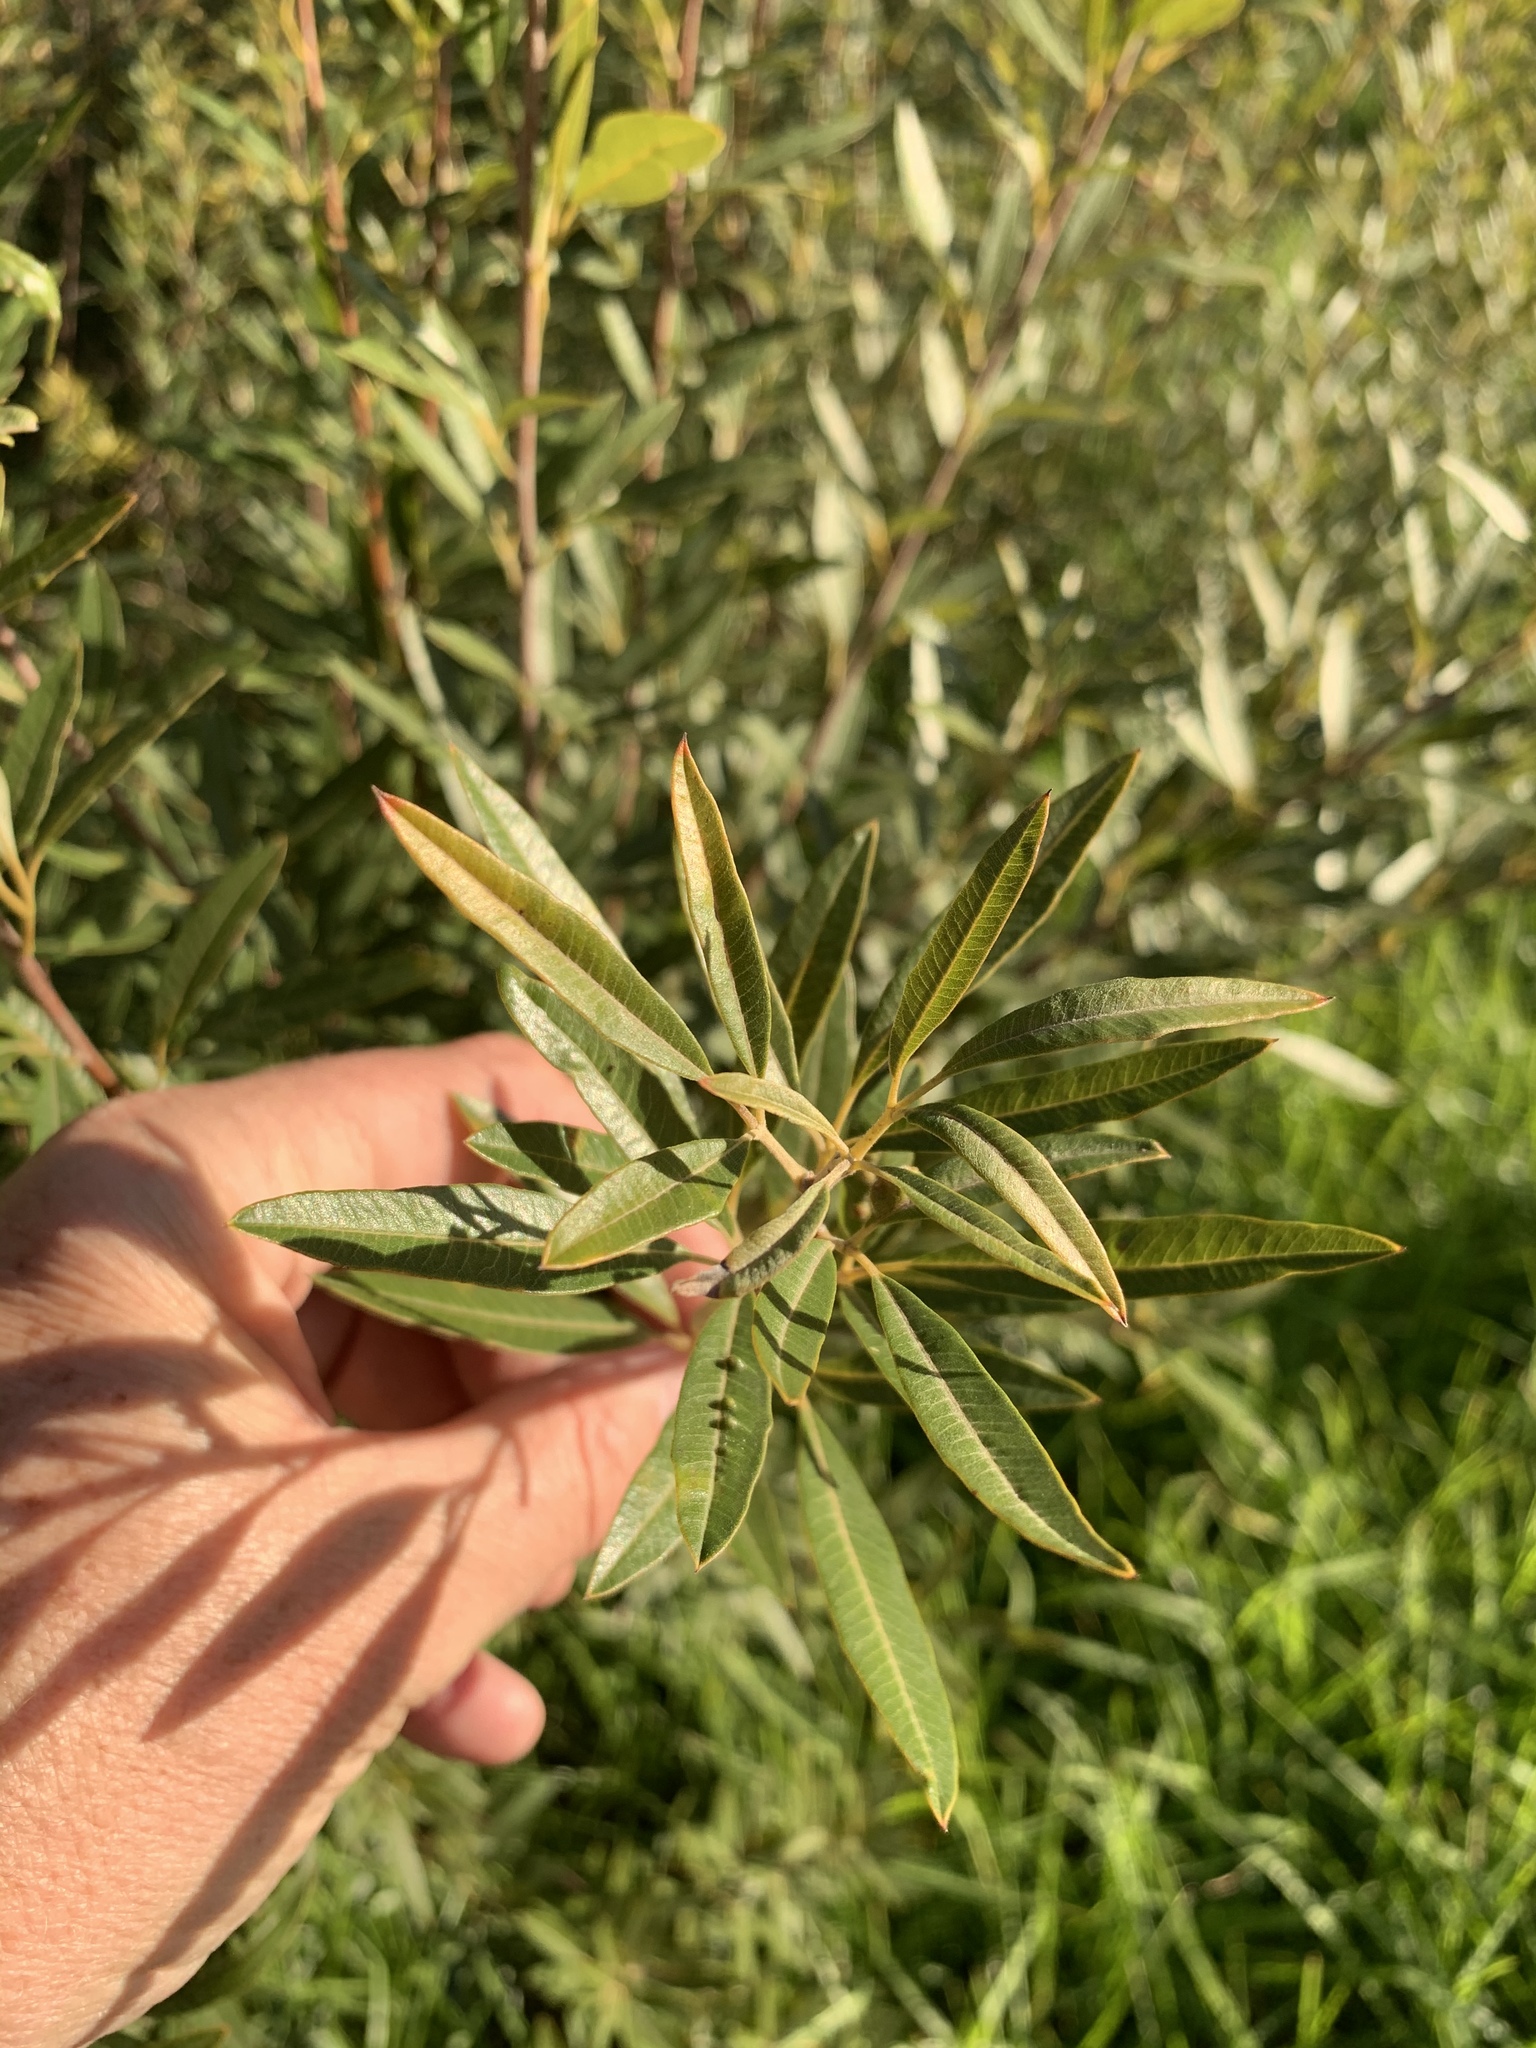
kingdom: Plantae
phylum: Tracheophyta
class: Magnoliopsida
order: Sapindales
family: Anacardiaceae
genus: Searsia
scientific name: Searsia angustifolia
